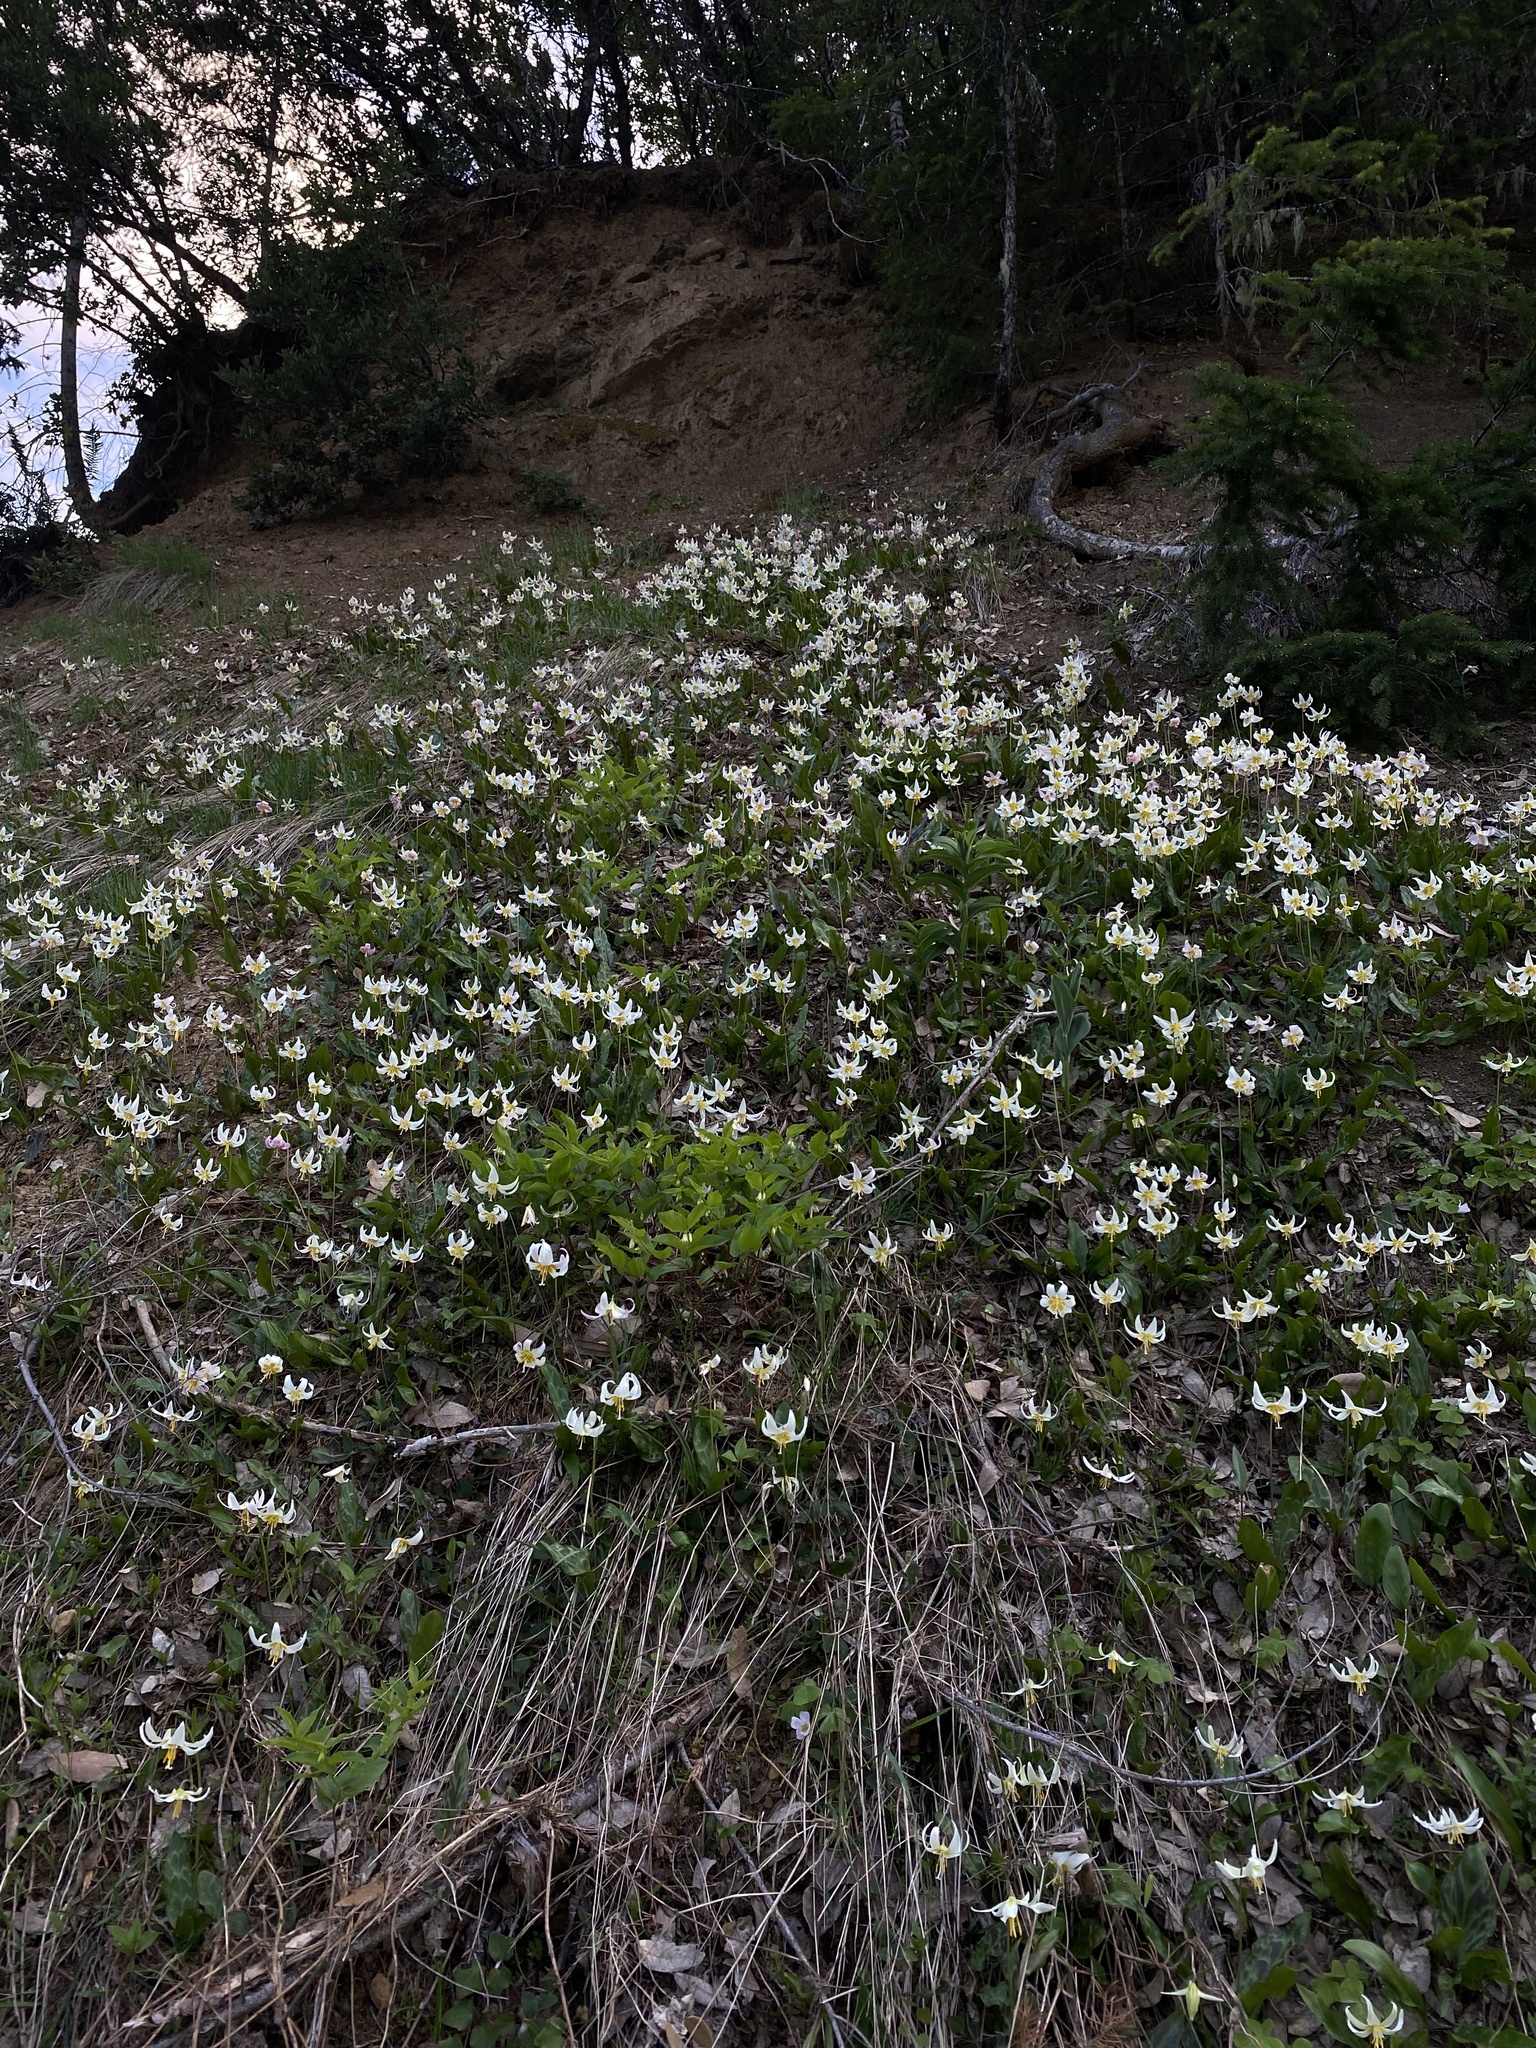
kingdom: Plantae
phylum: Tracheophyta
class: Liliopsida
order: Liliales
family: Liliaceae
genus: Erythronium
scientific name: Erythronium oregonum
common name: Giant adder's-tongue
